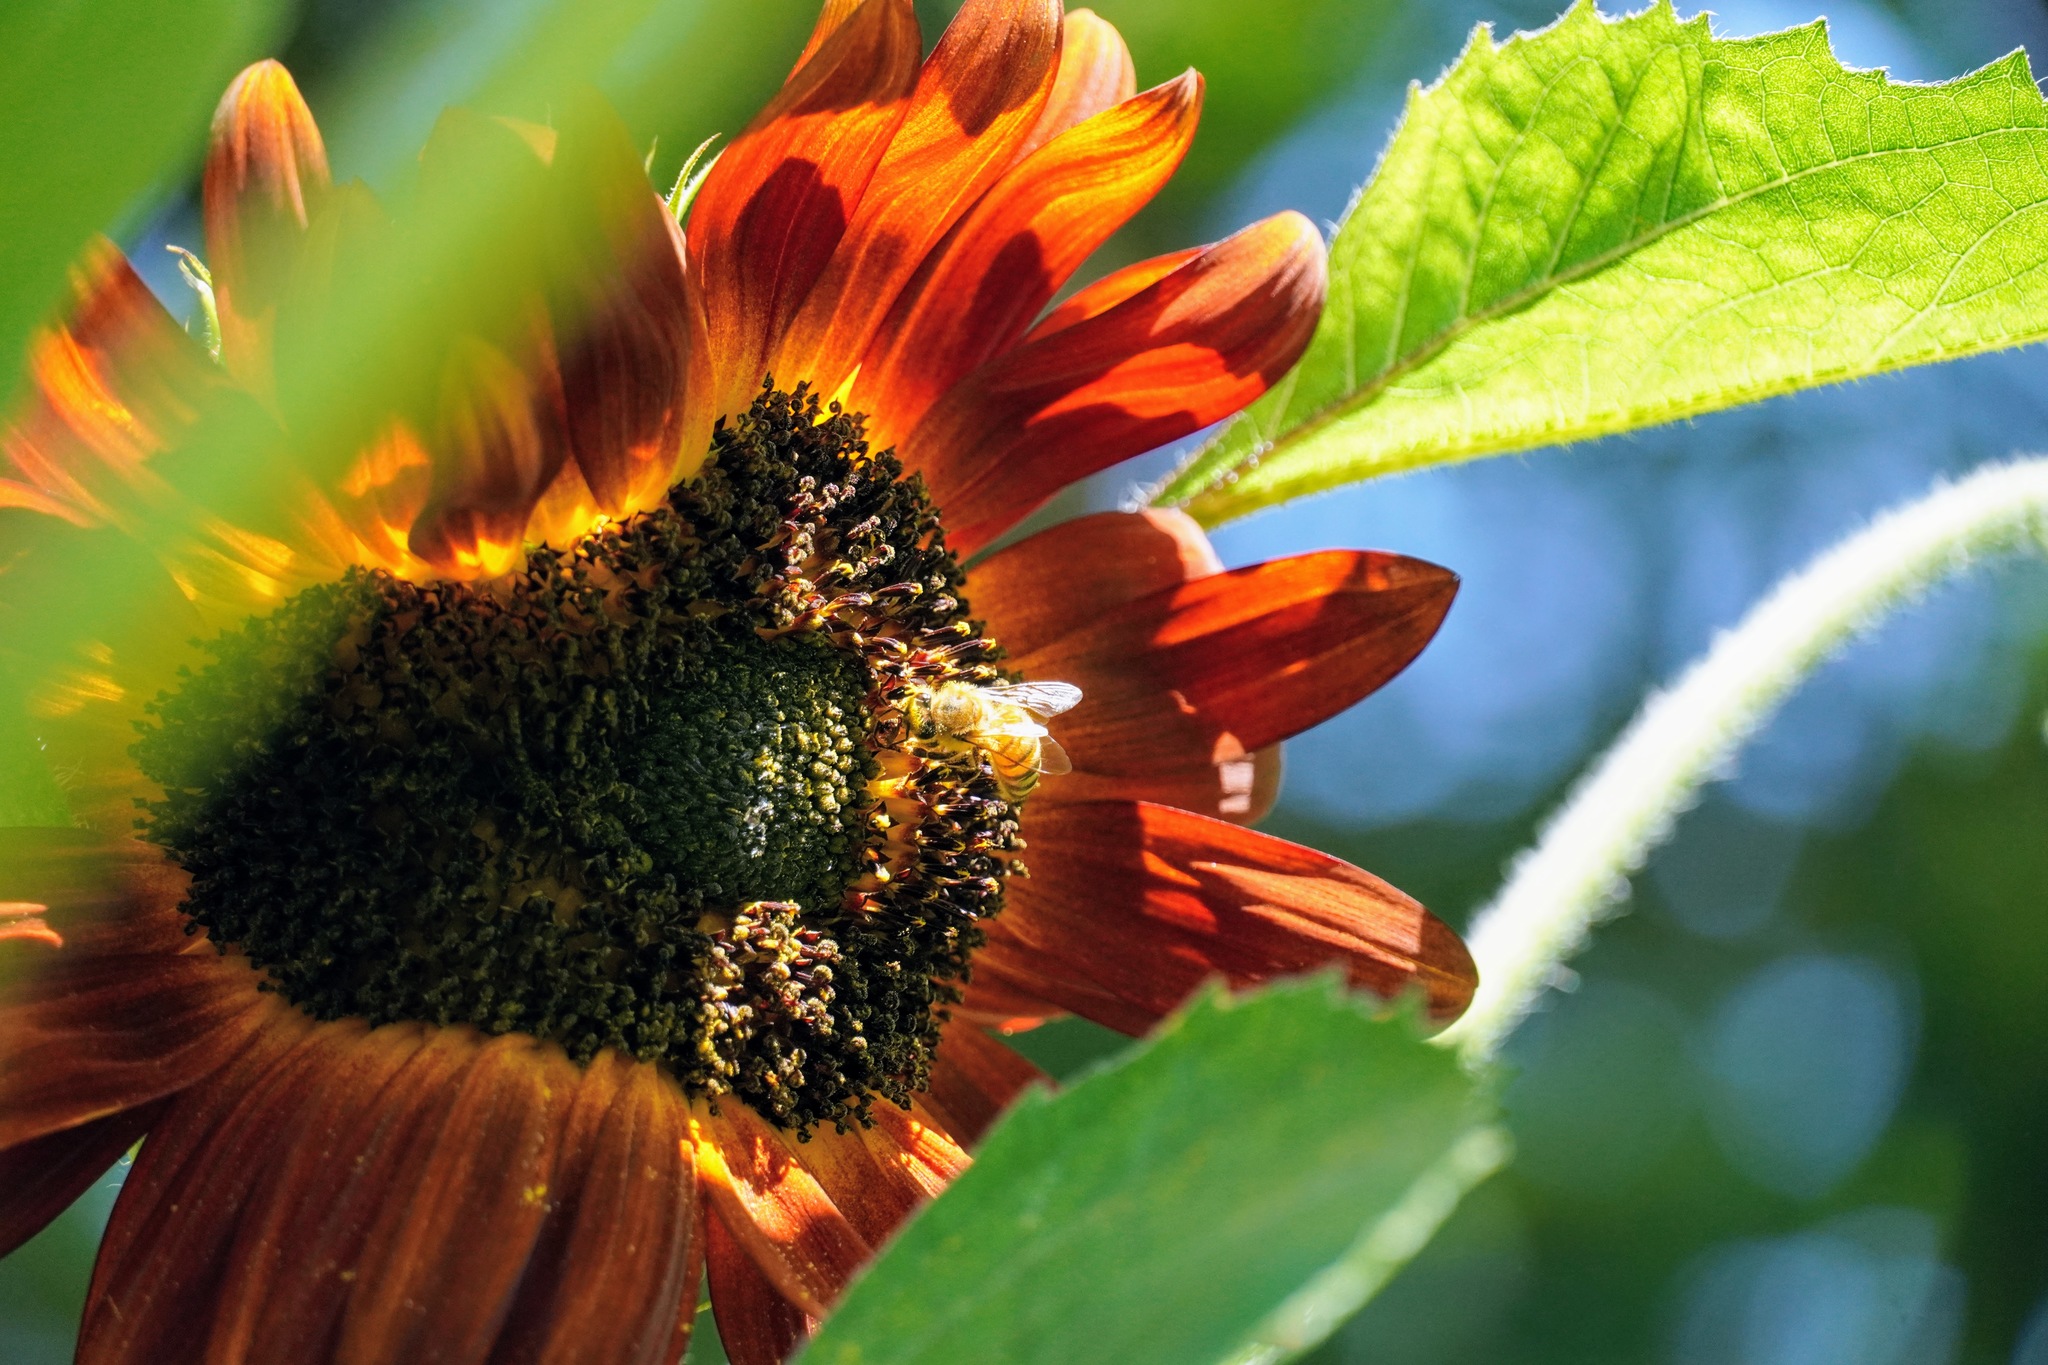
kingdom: Animalia
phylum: Arthropoda
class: Insecta
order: Hymenoptera
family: Apidae
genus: Apis
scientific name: Apis mellifera
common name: Honey bee
